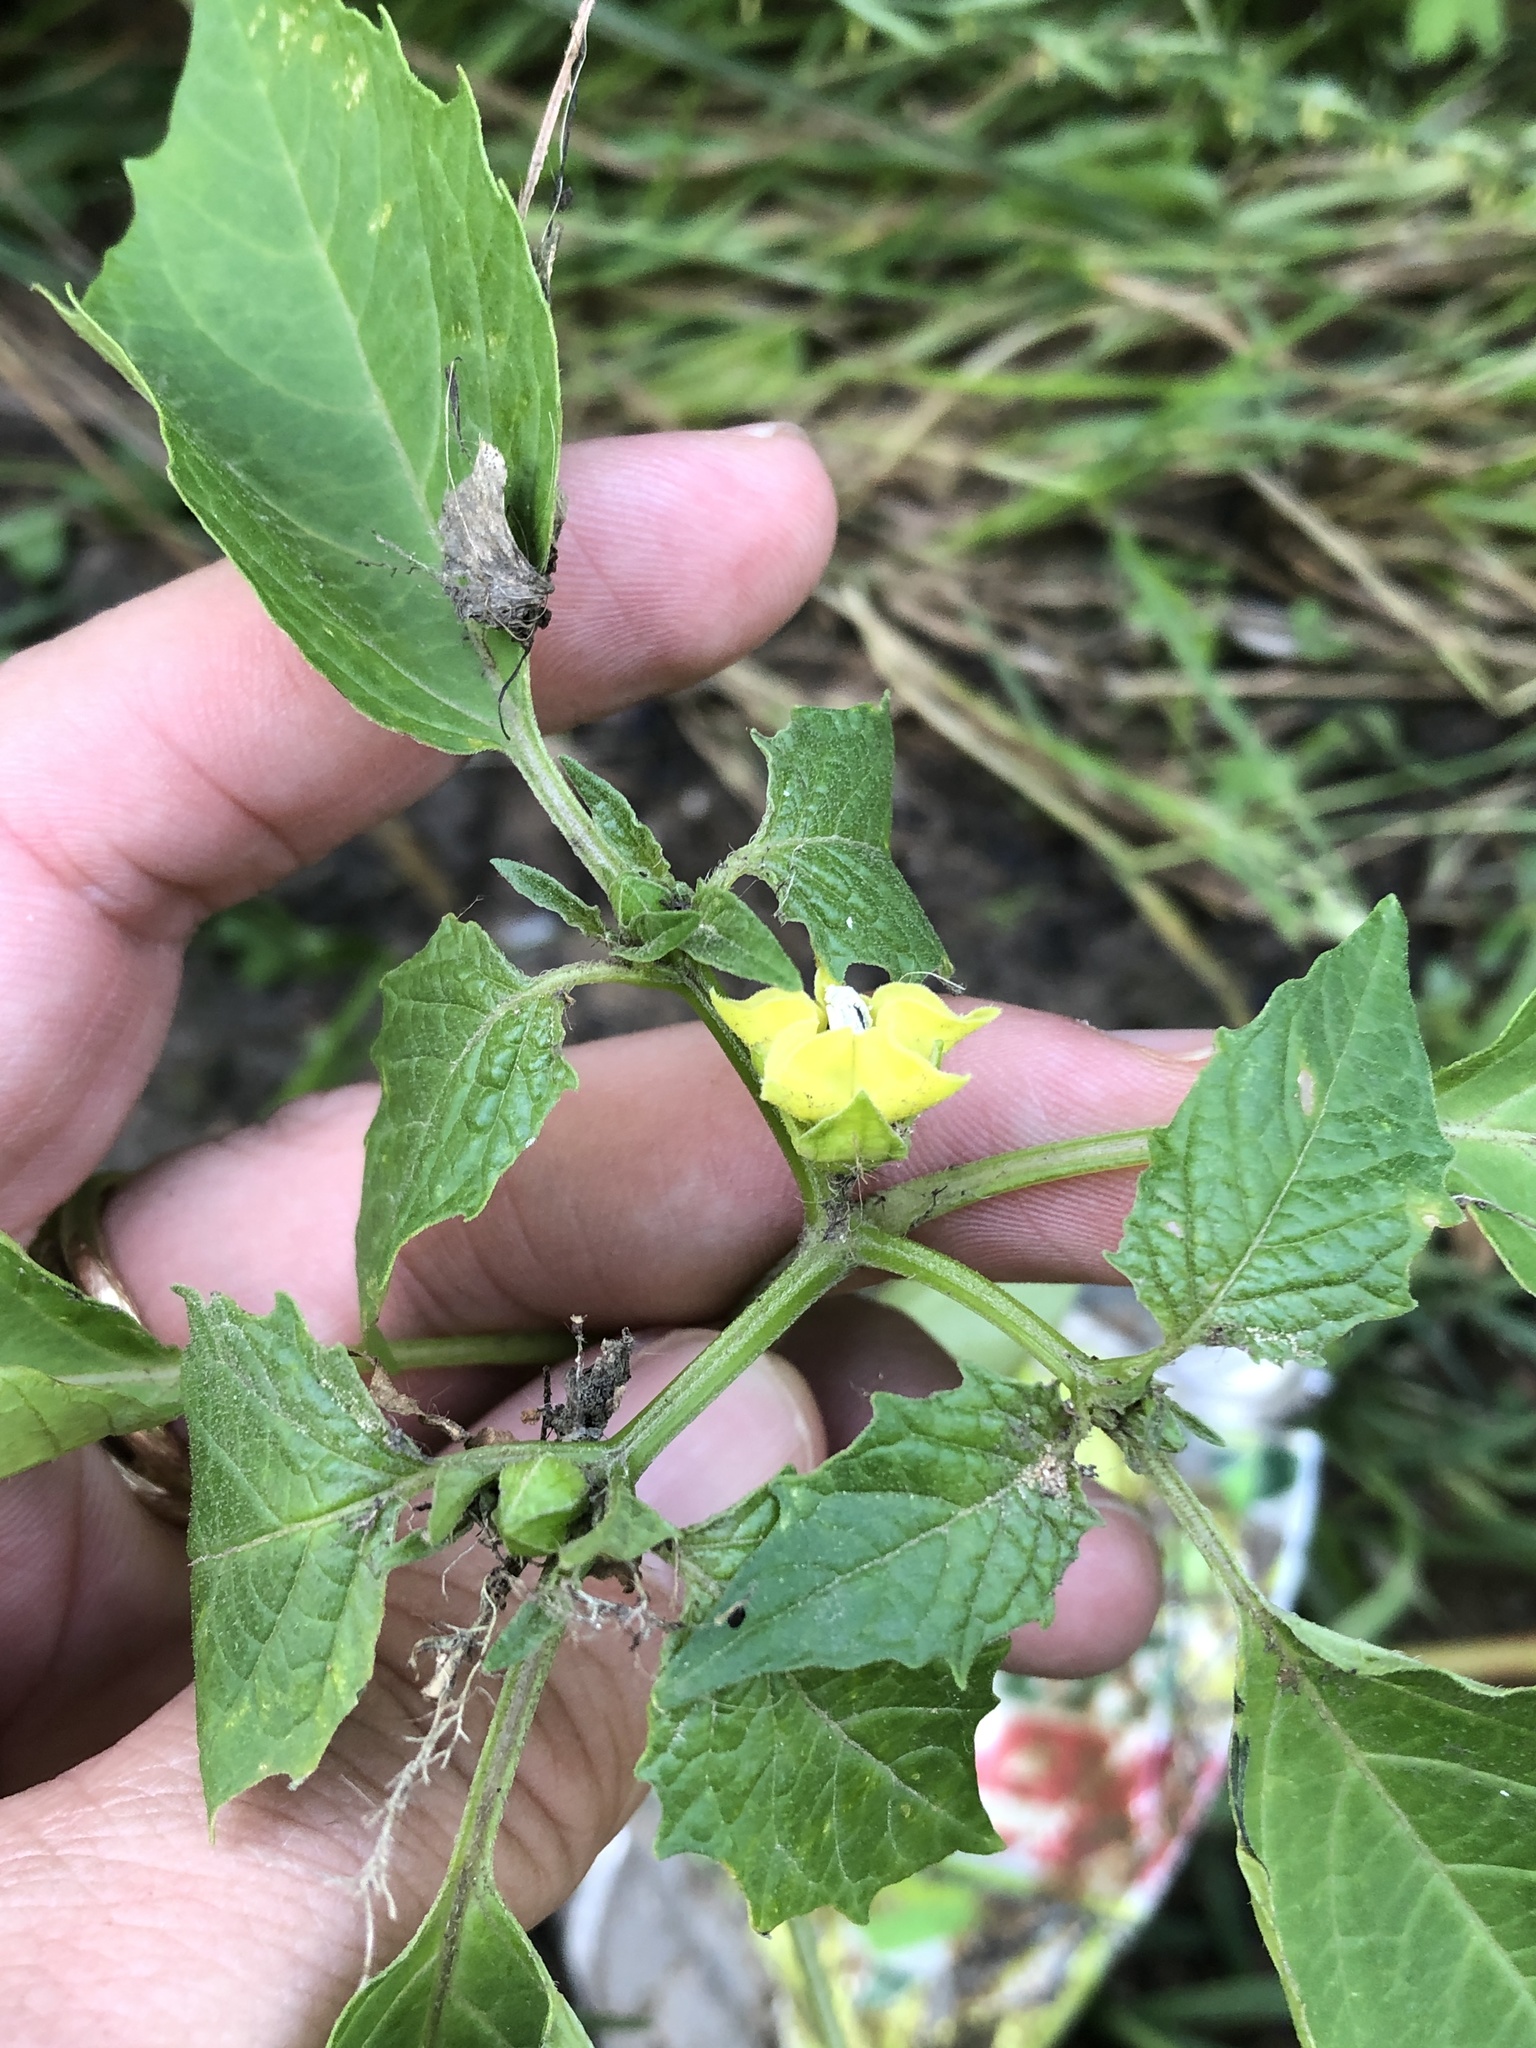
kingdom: Plantae
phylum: Tracheophyta
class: Magnoliopsida
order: Solanales
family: Solanaceae
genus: Physalis
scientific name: Physalis angulata
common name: Angular winter-cherry
